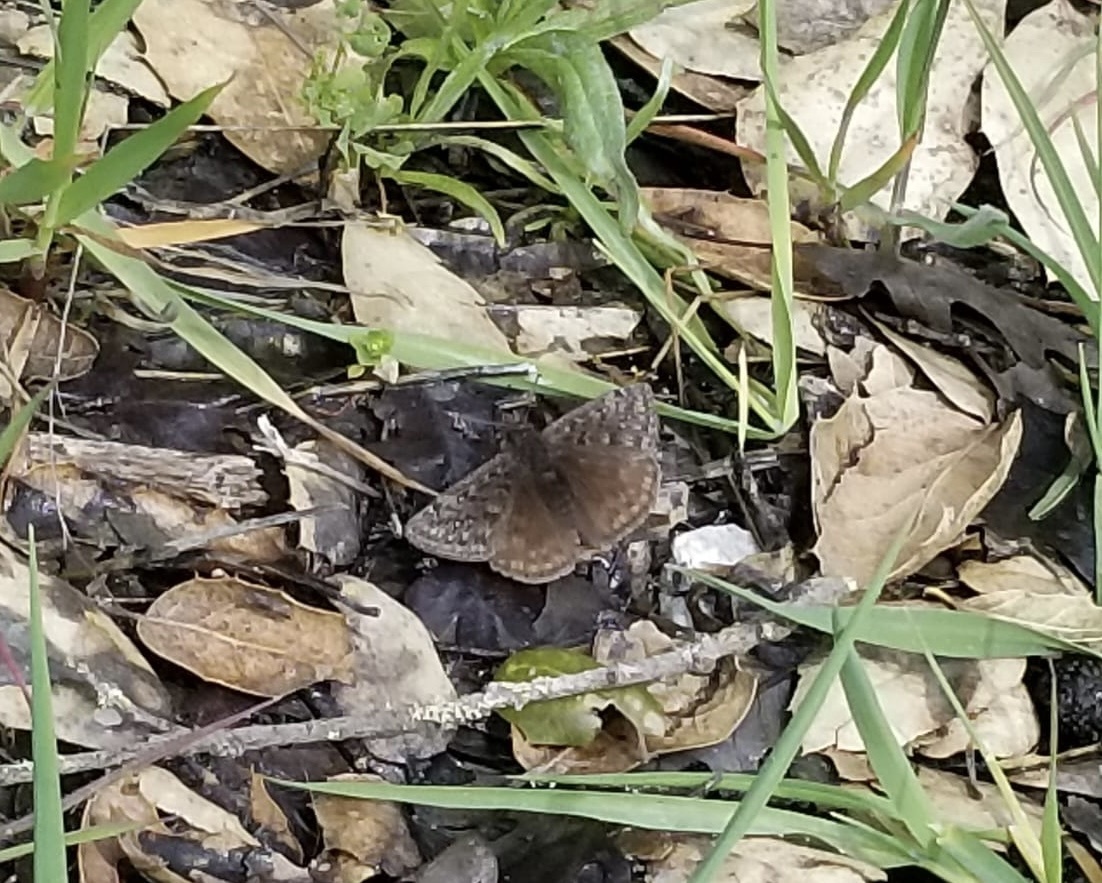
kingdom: Animalia
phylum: Arthropoda
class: Insecta
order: Lepidoptera
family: Hesperiidae
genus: Erynnis
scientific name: Erynnis propertius
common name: Propertius duskywing
